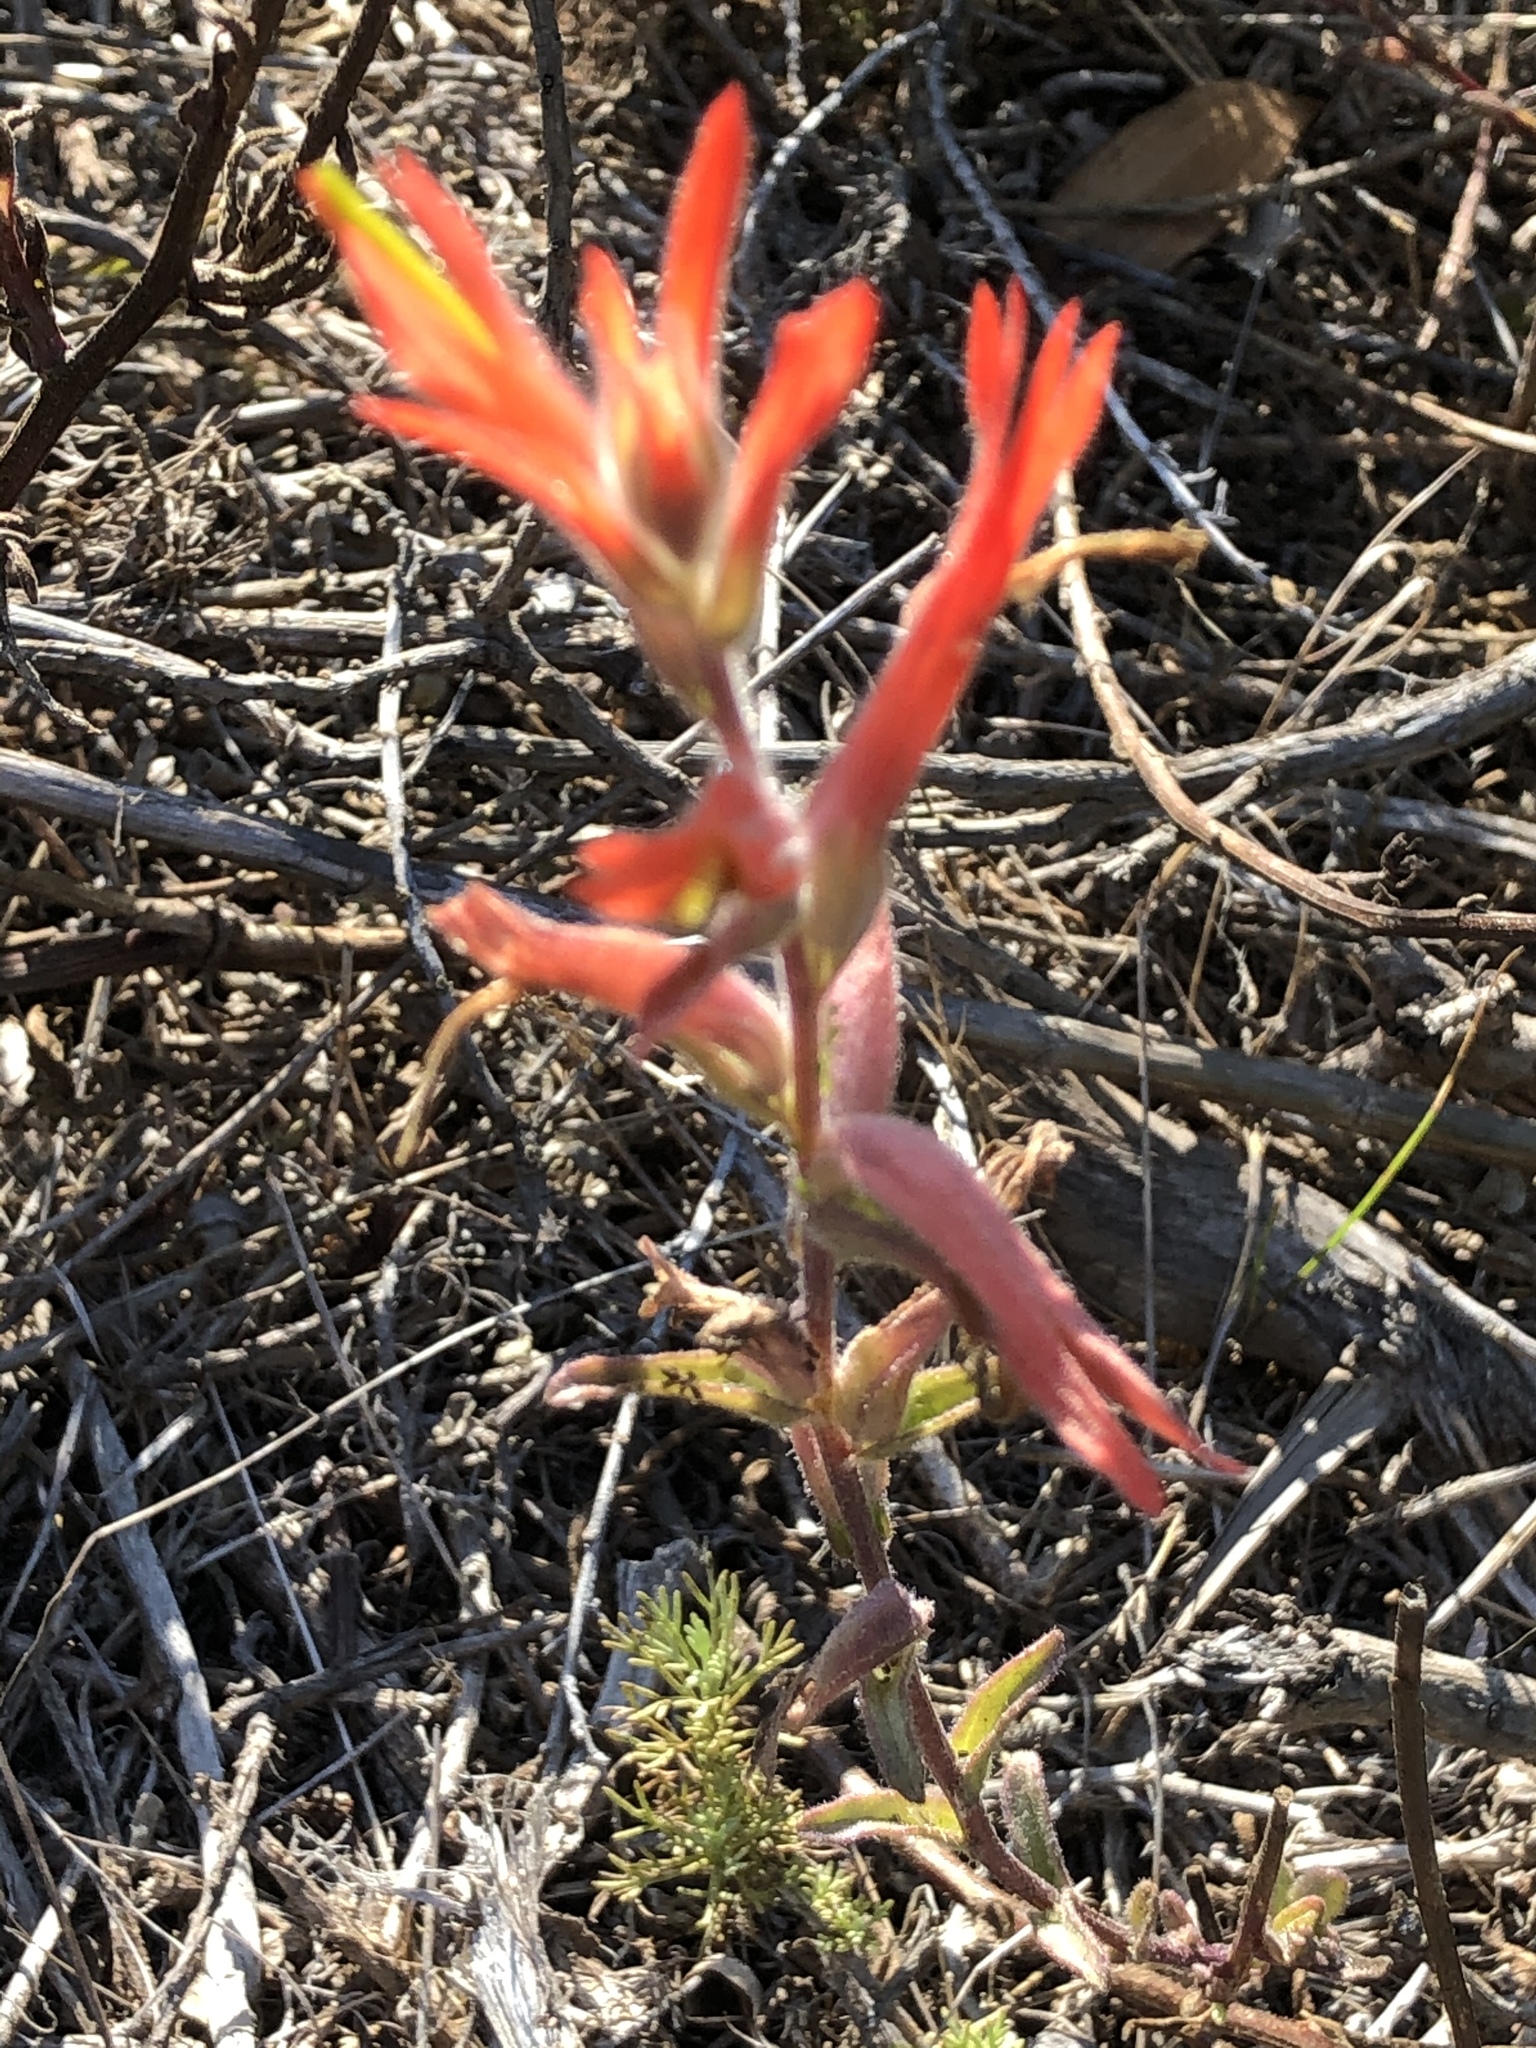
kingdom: Plantae
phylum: Tracheophyta
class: Magnoliopsida
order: Lamiales
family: Orobanchaceae
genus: Castilleja
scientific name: Castilleja subinclusa
